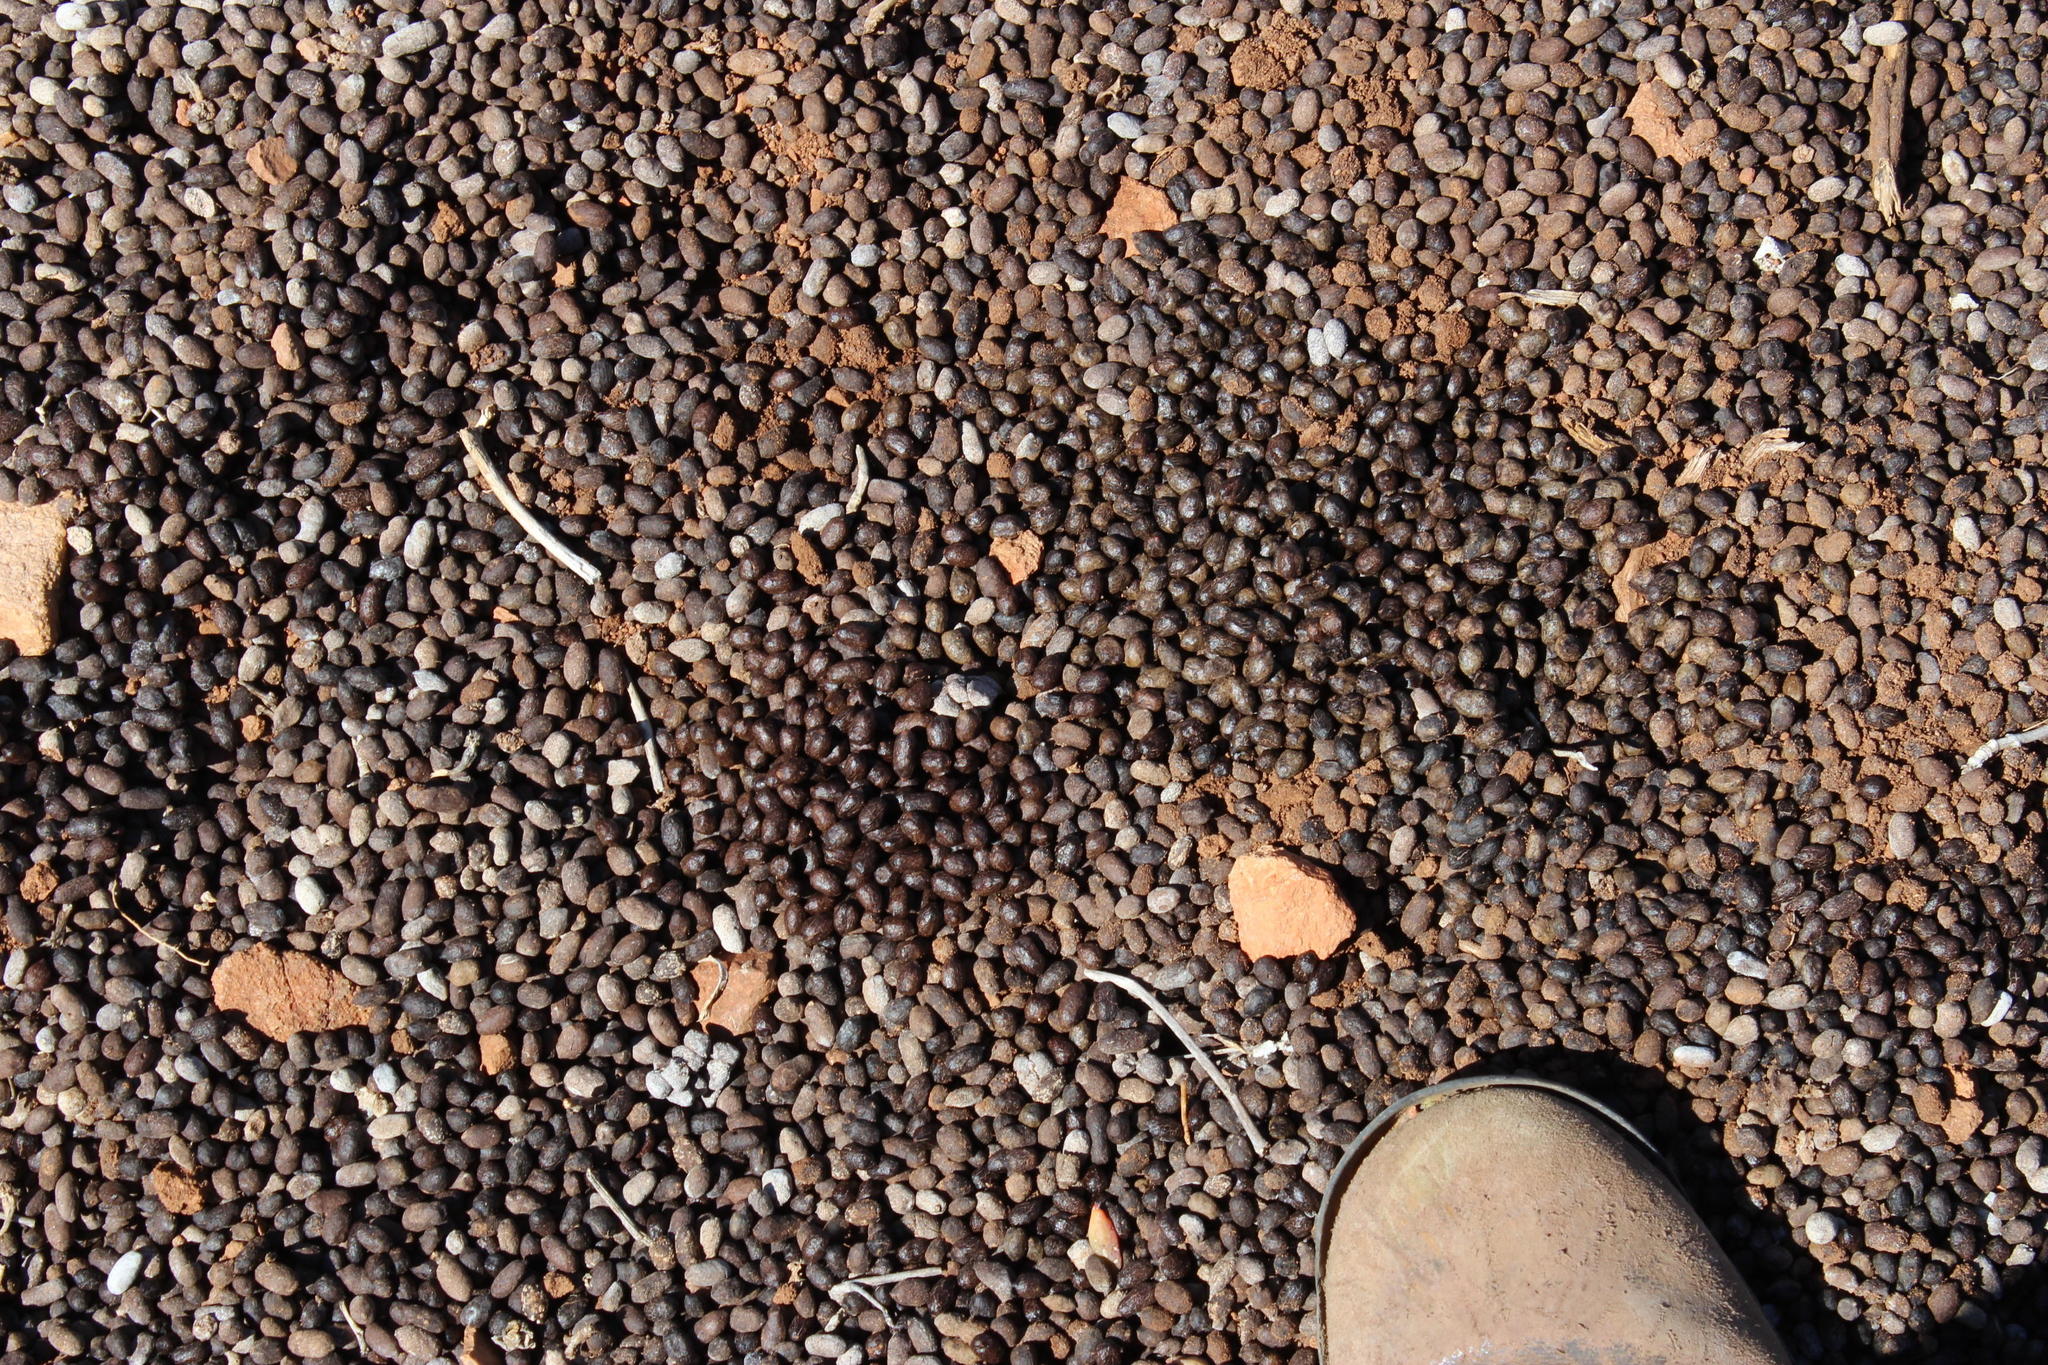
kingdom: Animalia
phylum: Chordata
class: Mammalia
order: Artiodactyla
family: Bovidae
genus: Oreotragus
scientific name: Oreotragus oreotragus
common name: Klipspringer
